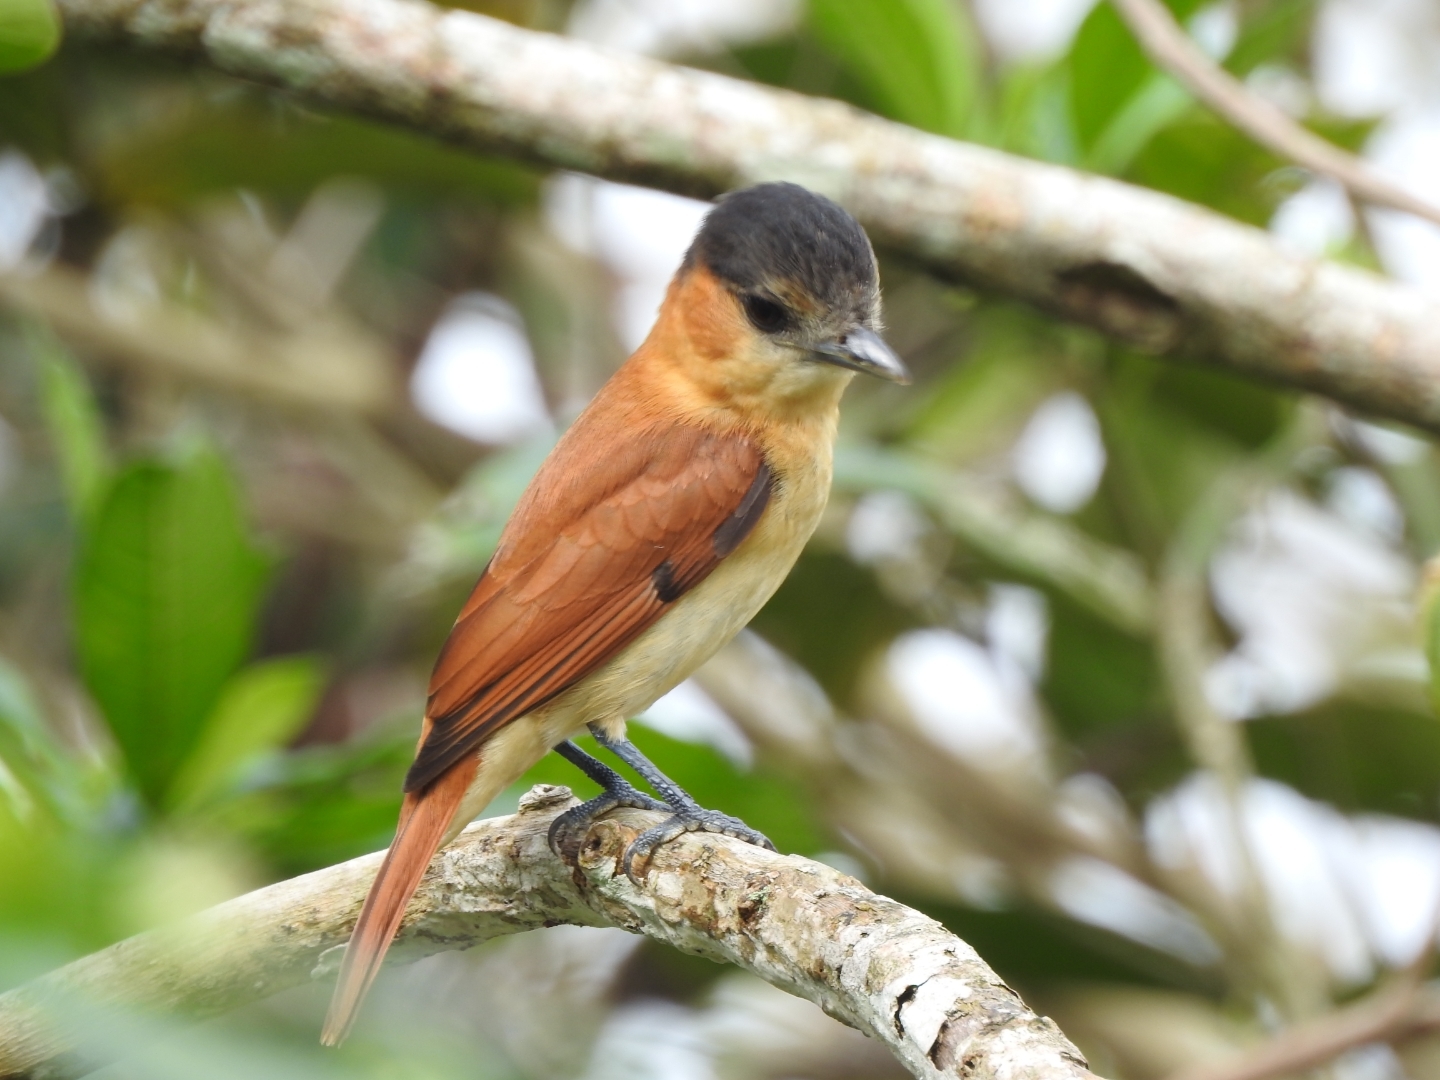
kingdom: Animalia
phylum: Chordata
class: Aves
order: Passeriformes
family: Cotingidae
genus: Pachyramphus
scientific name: Pachyramphus aglaiae
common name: Rose-throated becard
